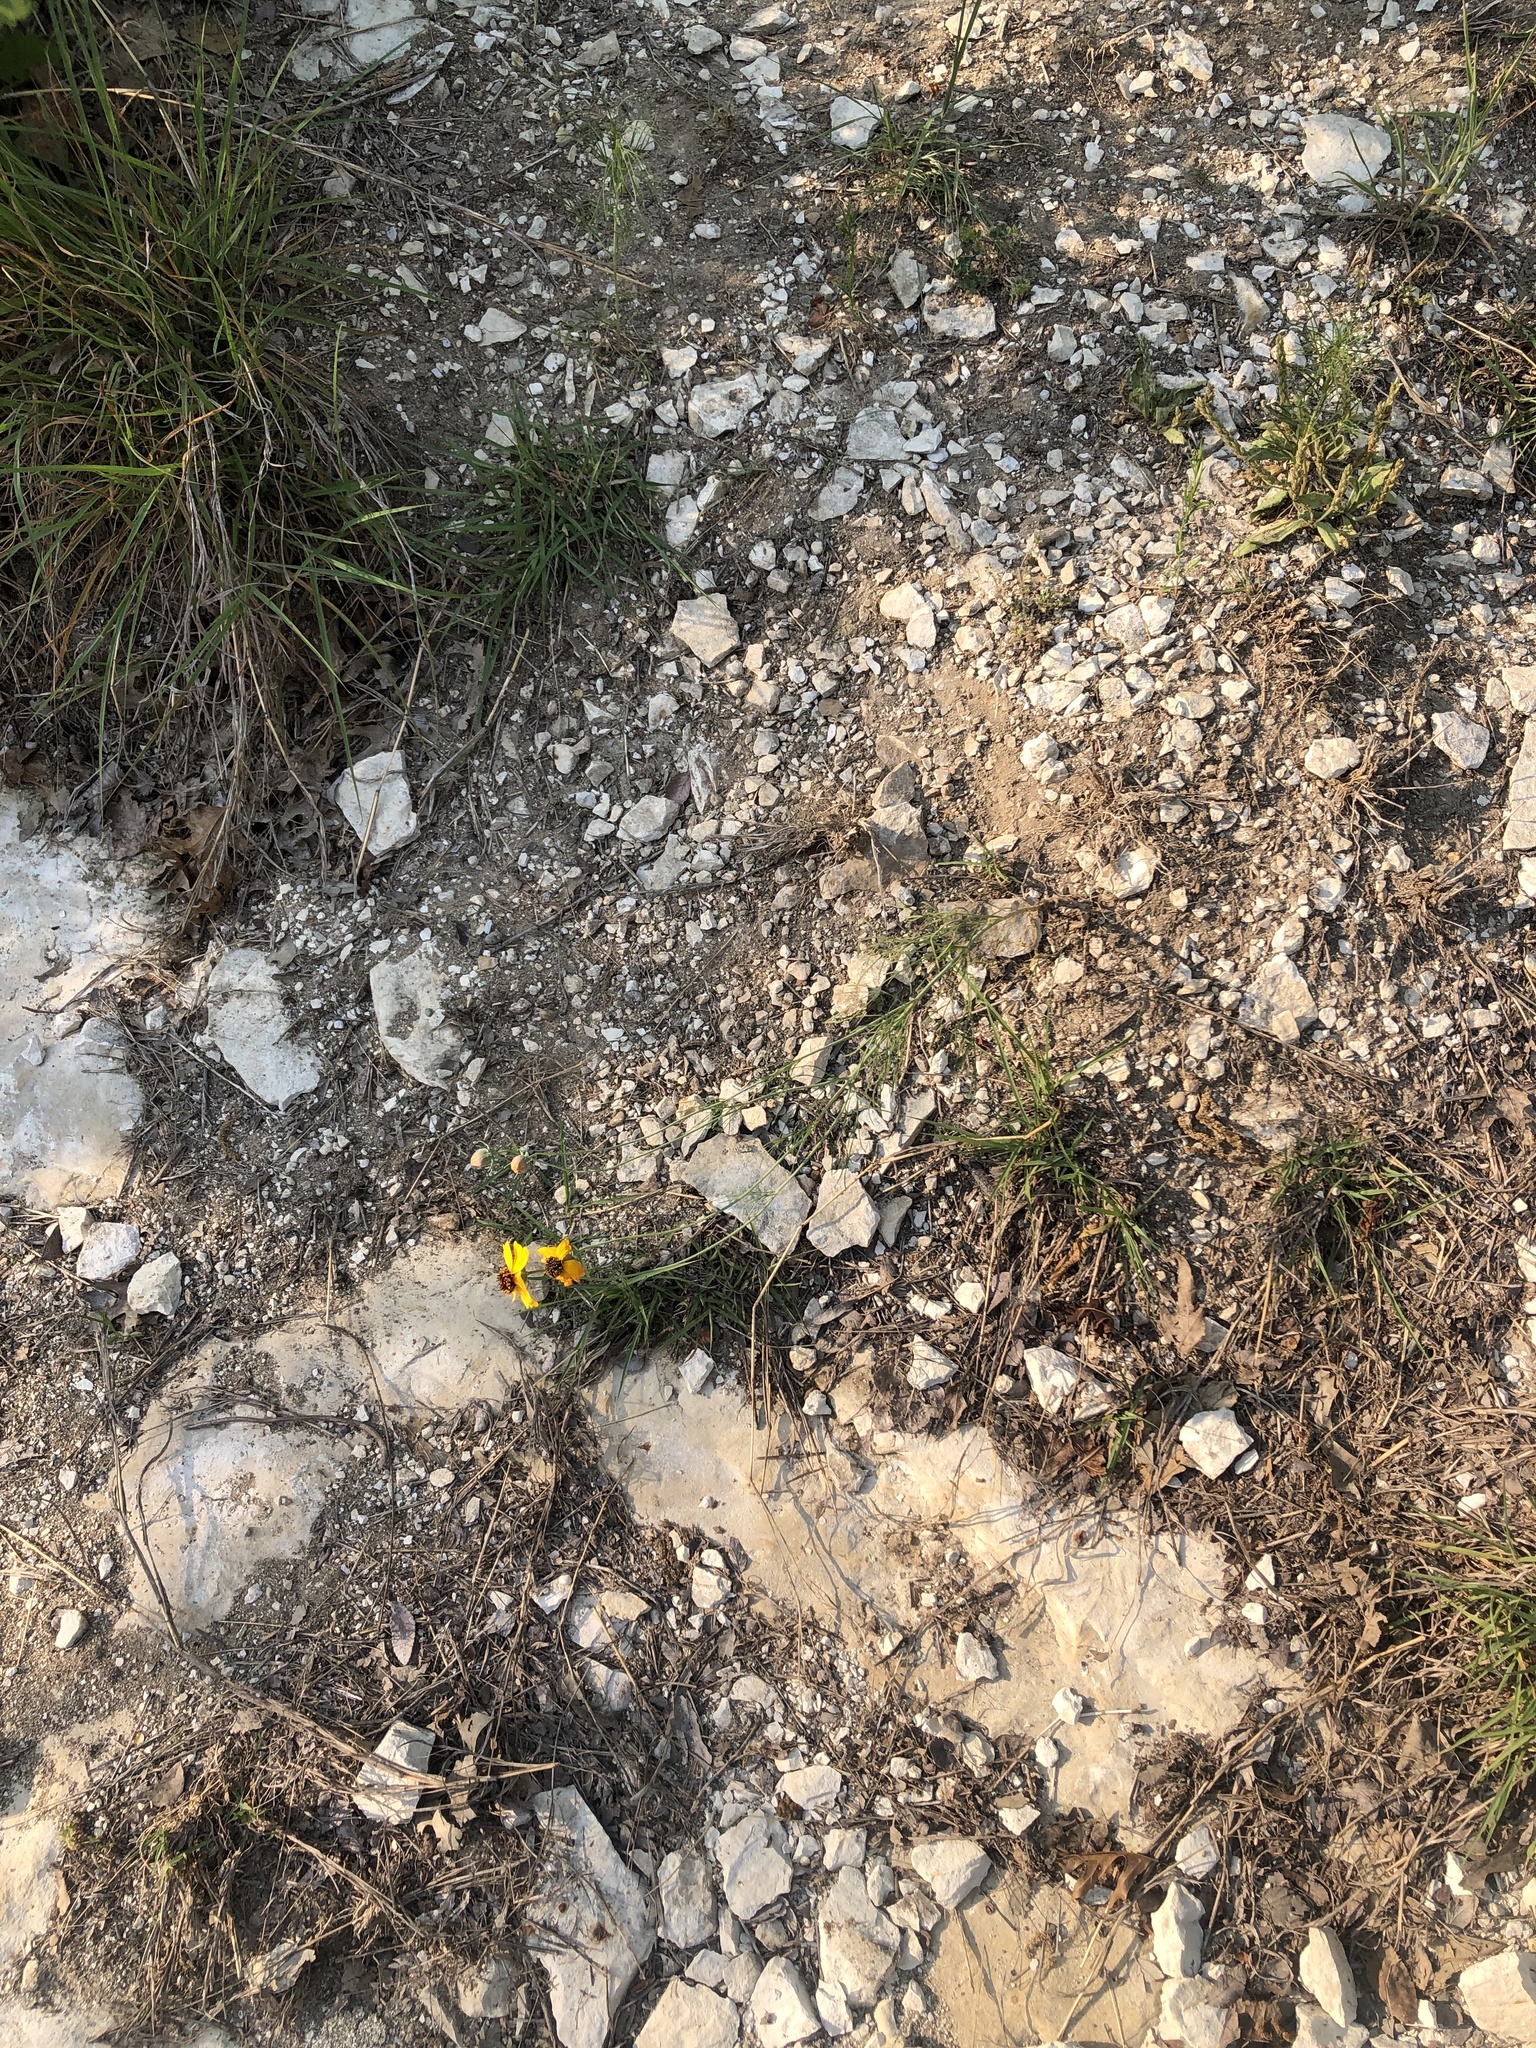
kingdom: Plantae
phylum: Tracheophyta
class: Magnoliopsida
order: Asterales
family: Asteraceae
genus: Thelesperma
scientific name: Thelesperma filifolium
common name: Stiff greenthread
